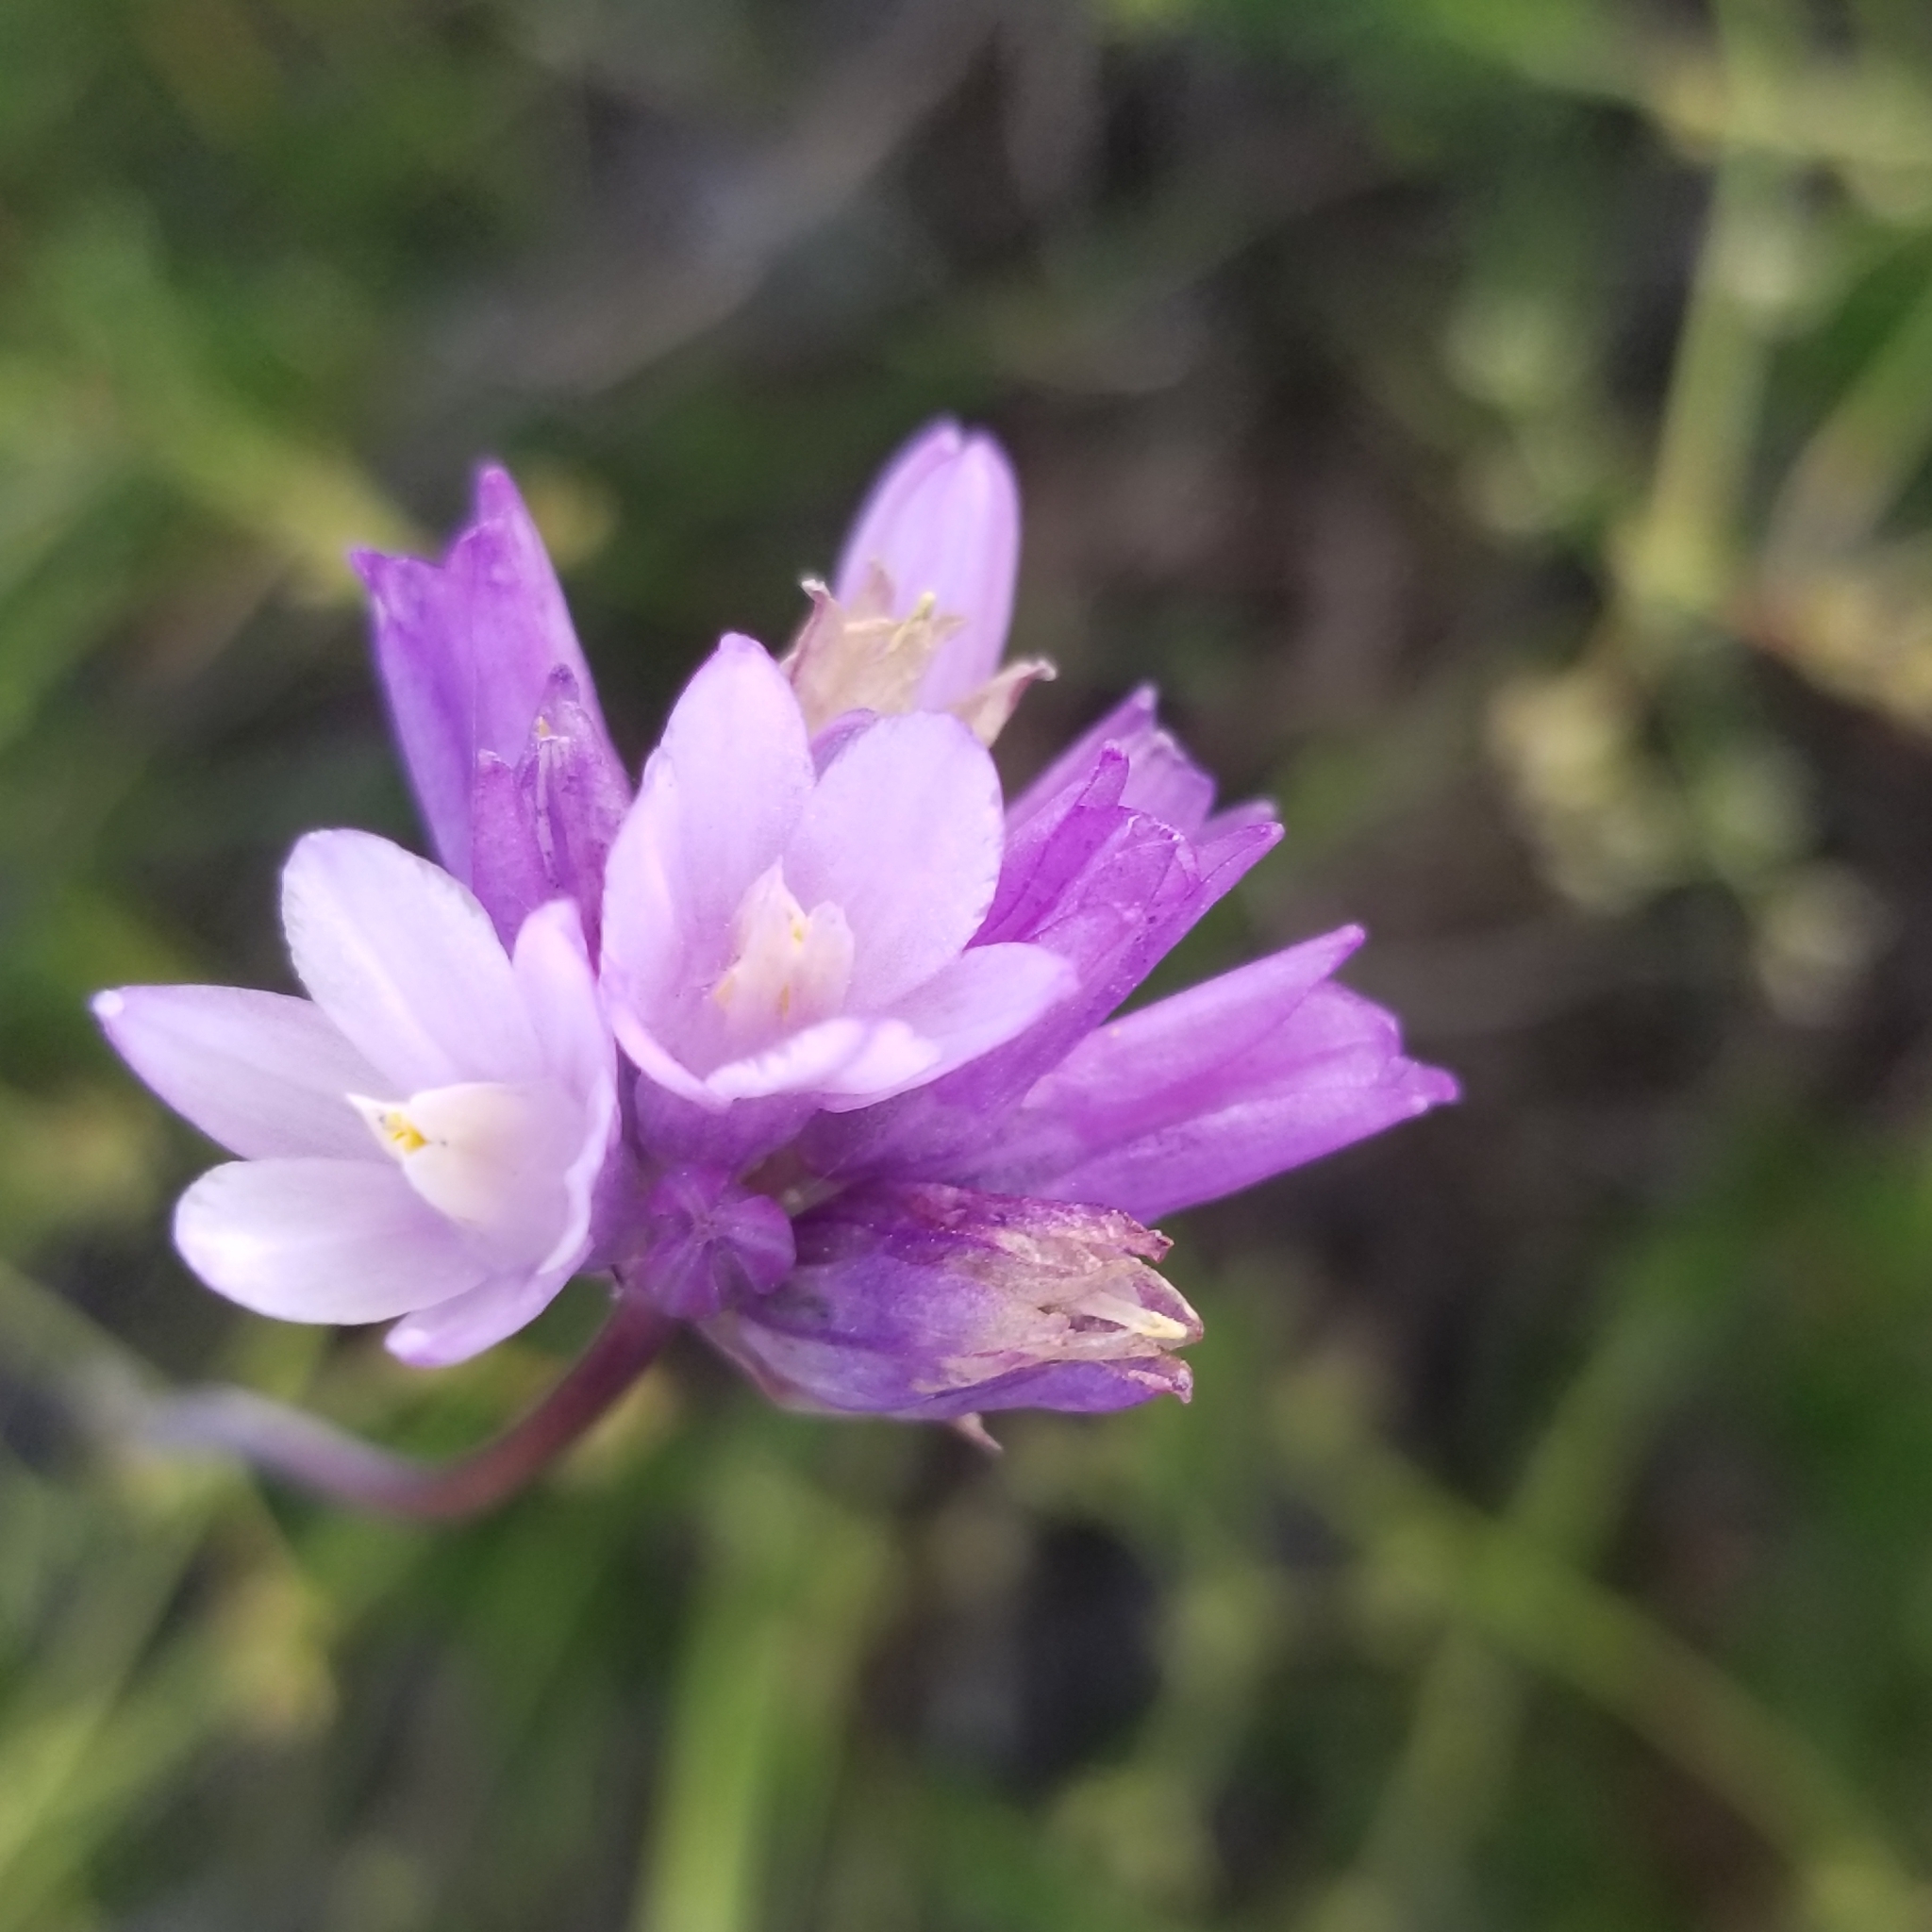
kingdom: Plantae
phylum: Tracheophyta
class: Liliopsida
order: Asparagales
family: Asparagaceae
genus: Dipterostemon
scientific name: Dipterostemon capitatus
